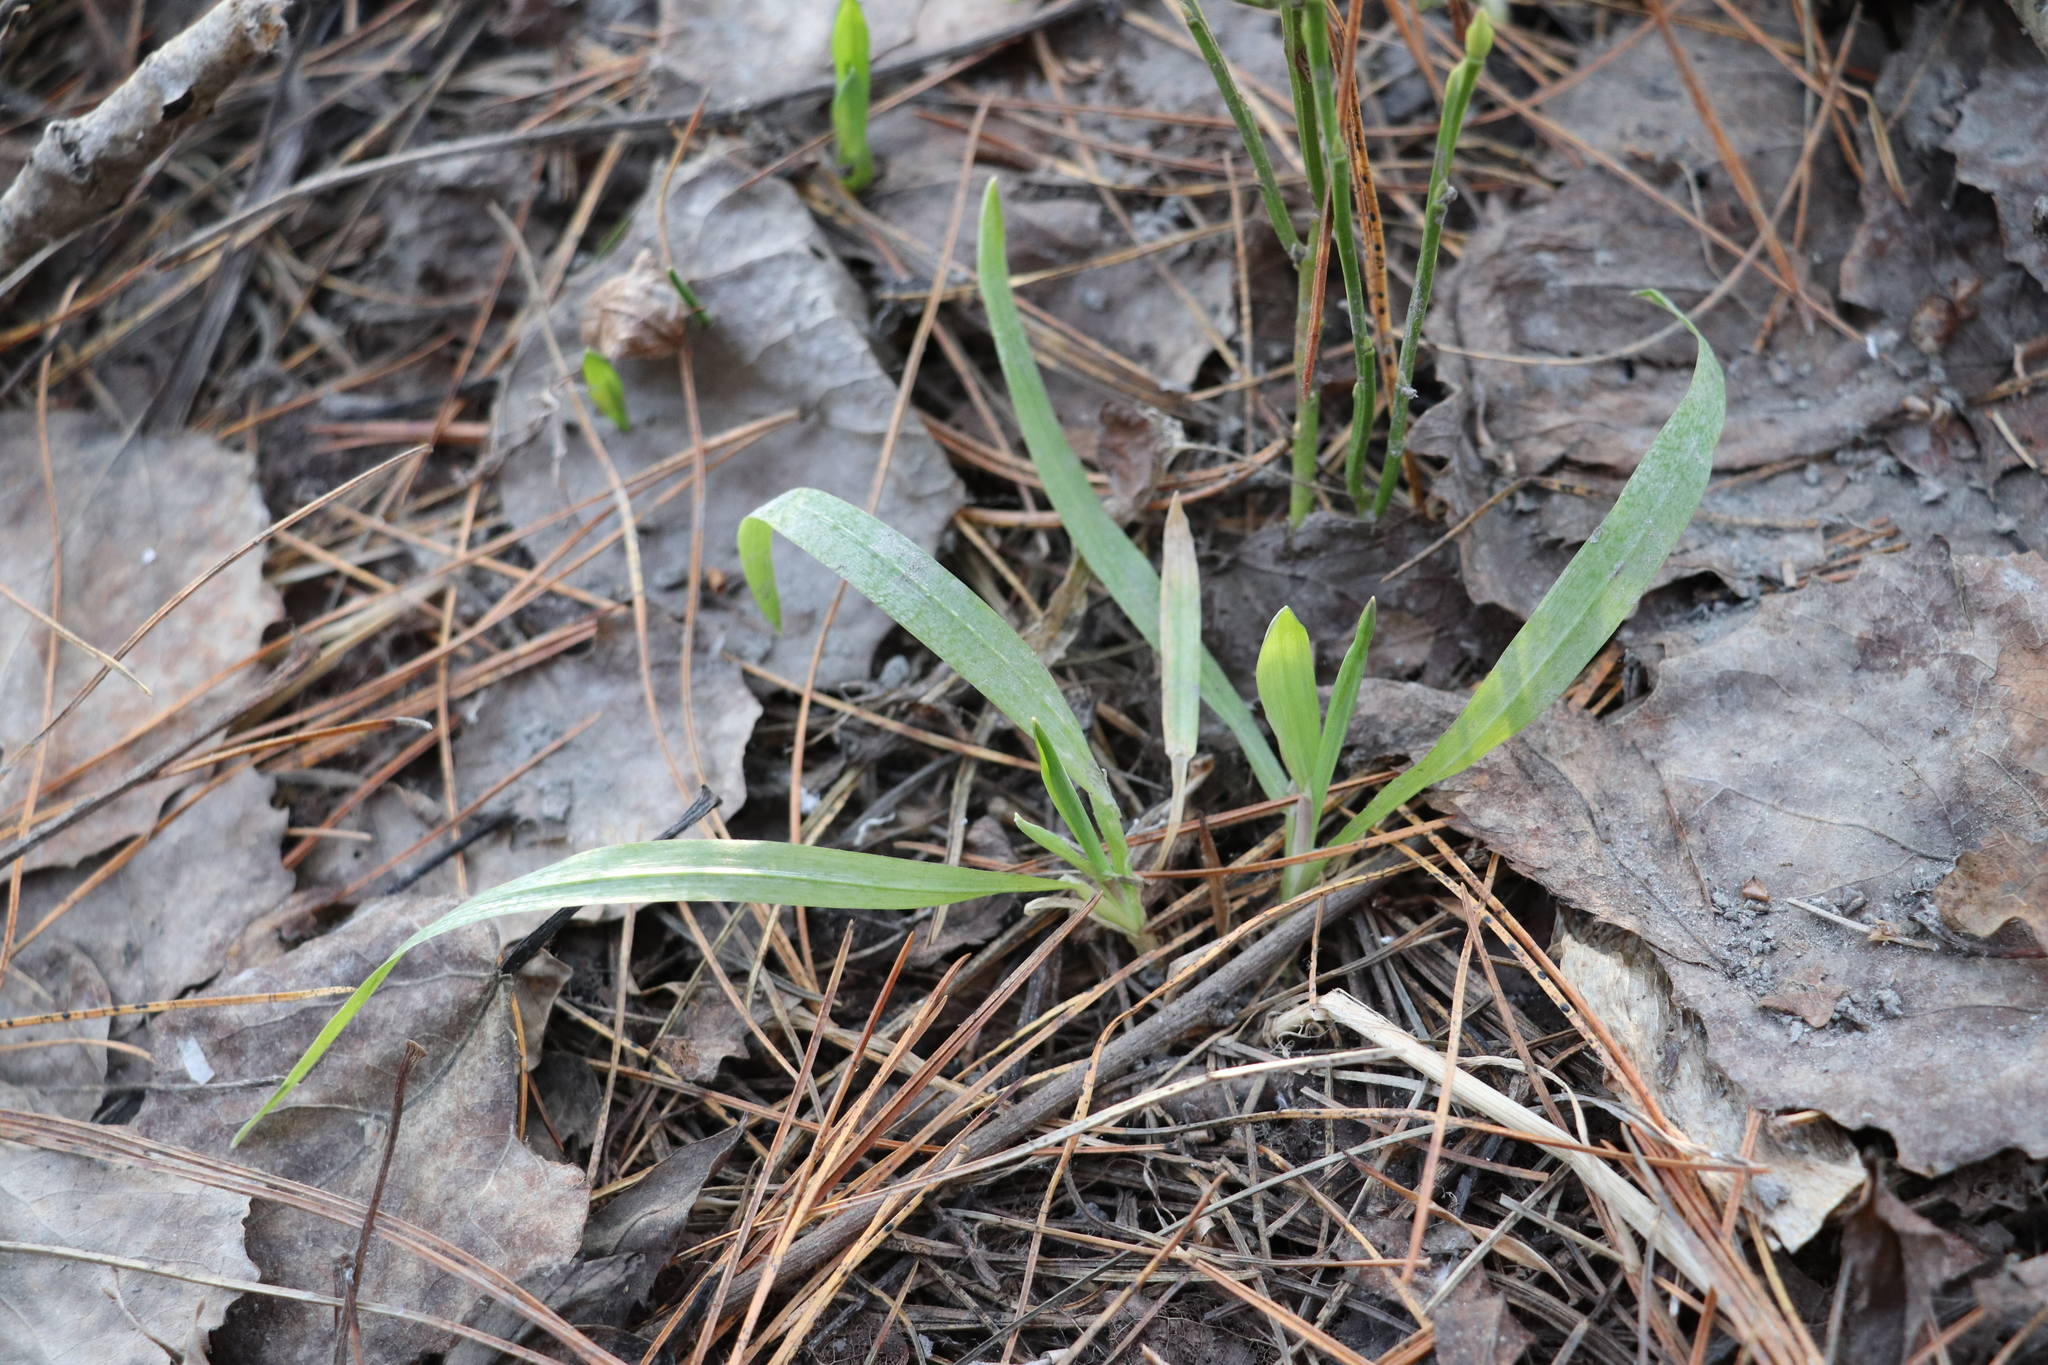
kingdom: Plantae
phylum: Tracheophyta
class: Liliopsida
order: Poales
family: Poaceae
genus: Milium
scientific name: Milium effusum
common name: Wood millet
